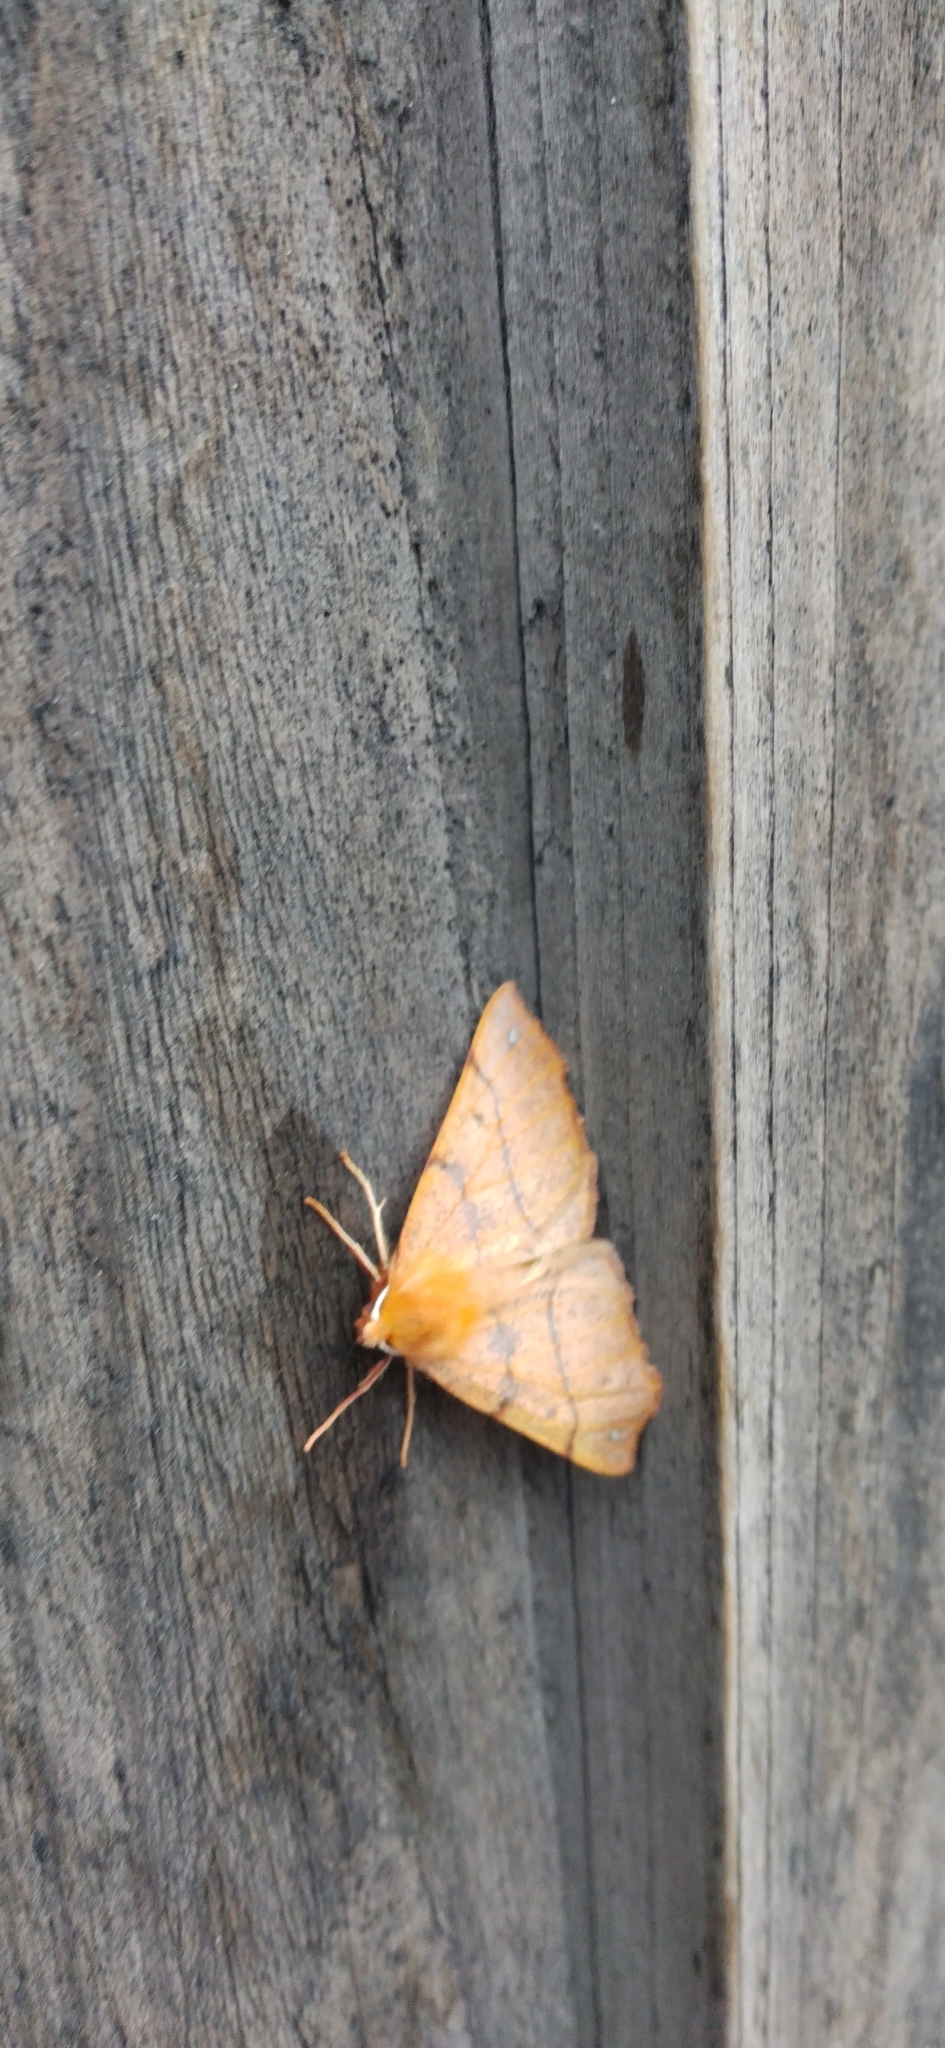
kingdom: Animalia
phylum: Arthropoda
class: Insecta
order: Lepidoptera
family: Geometridae
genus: Colotois
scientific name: Colotois pennaria
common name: Feathered thorn
